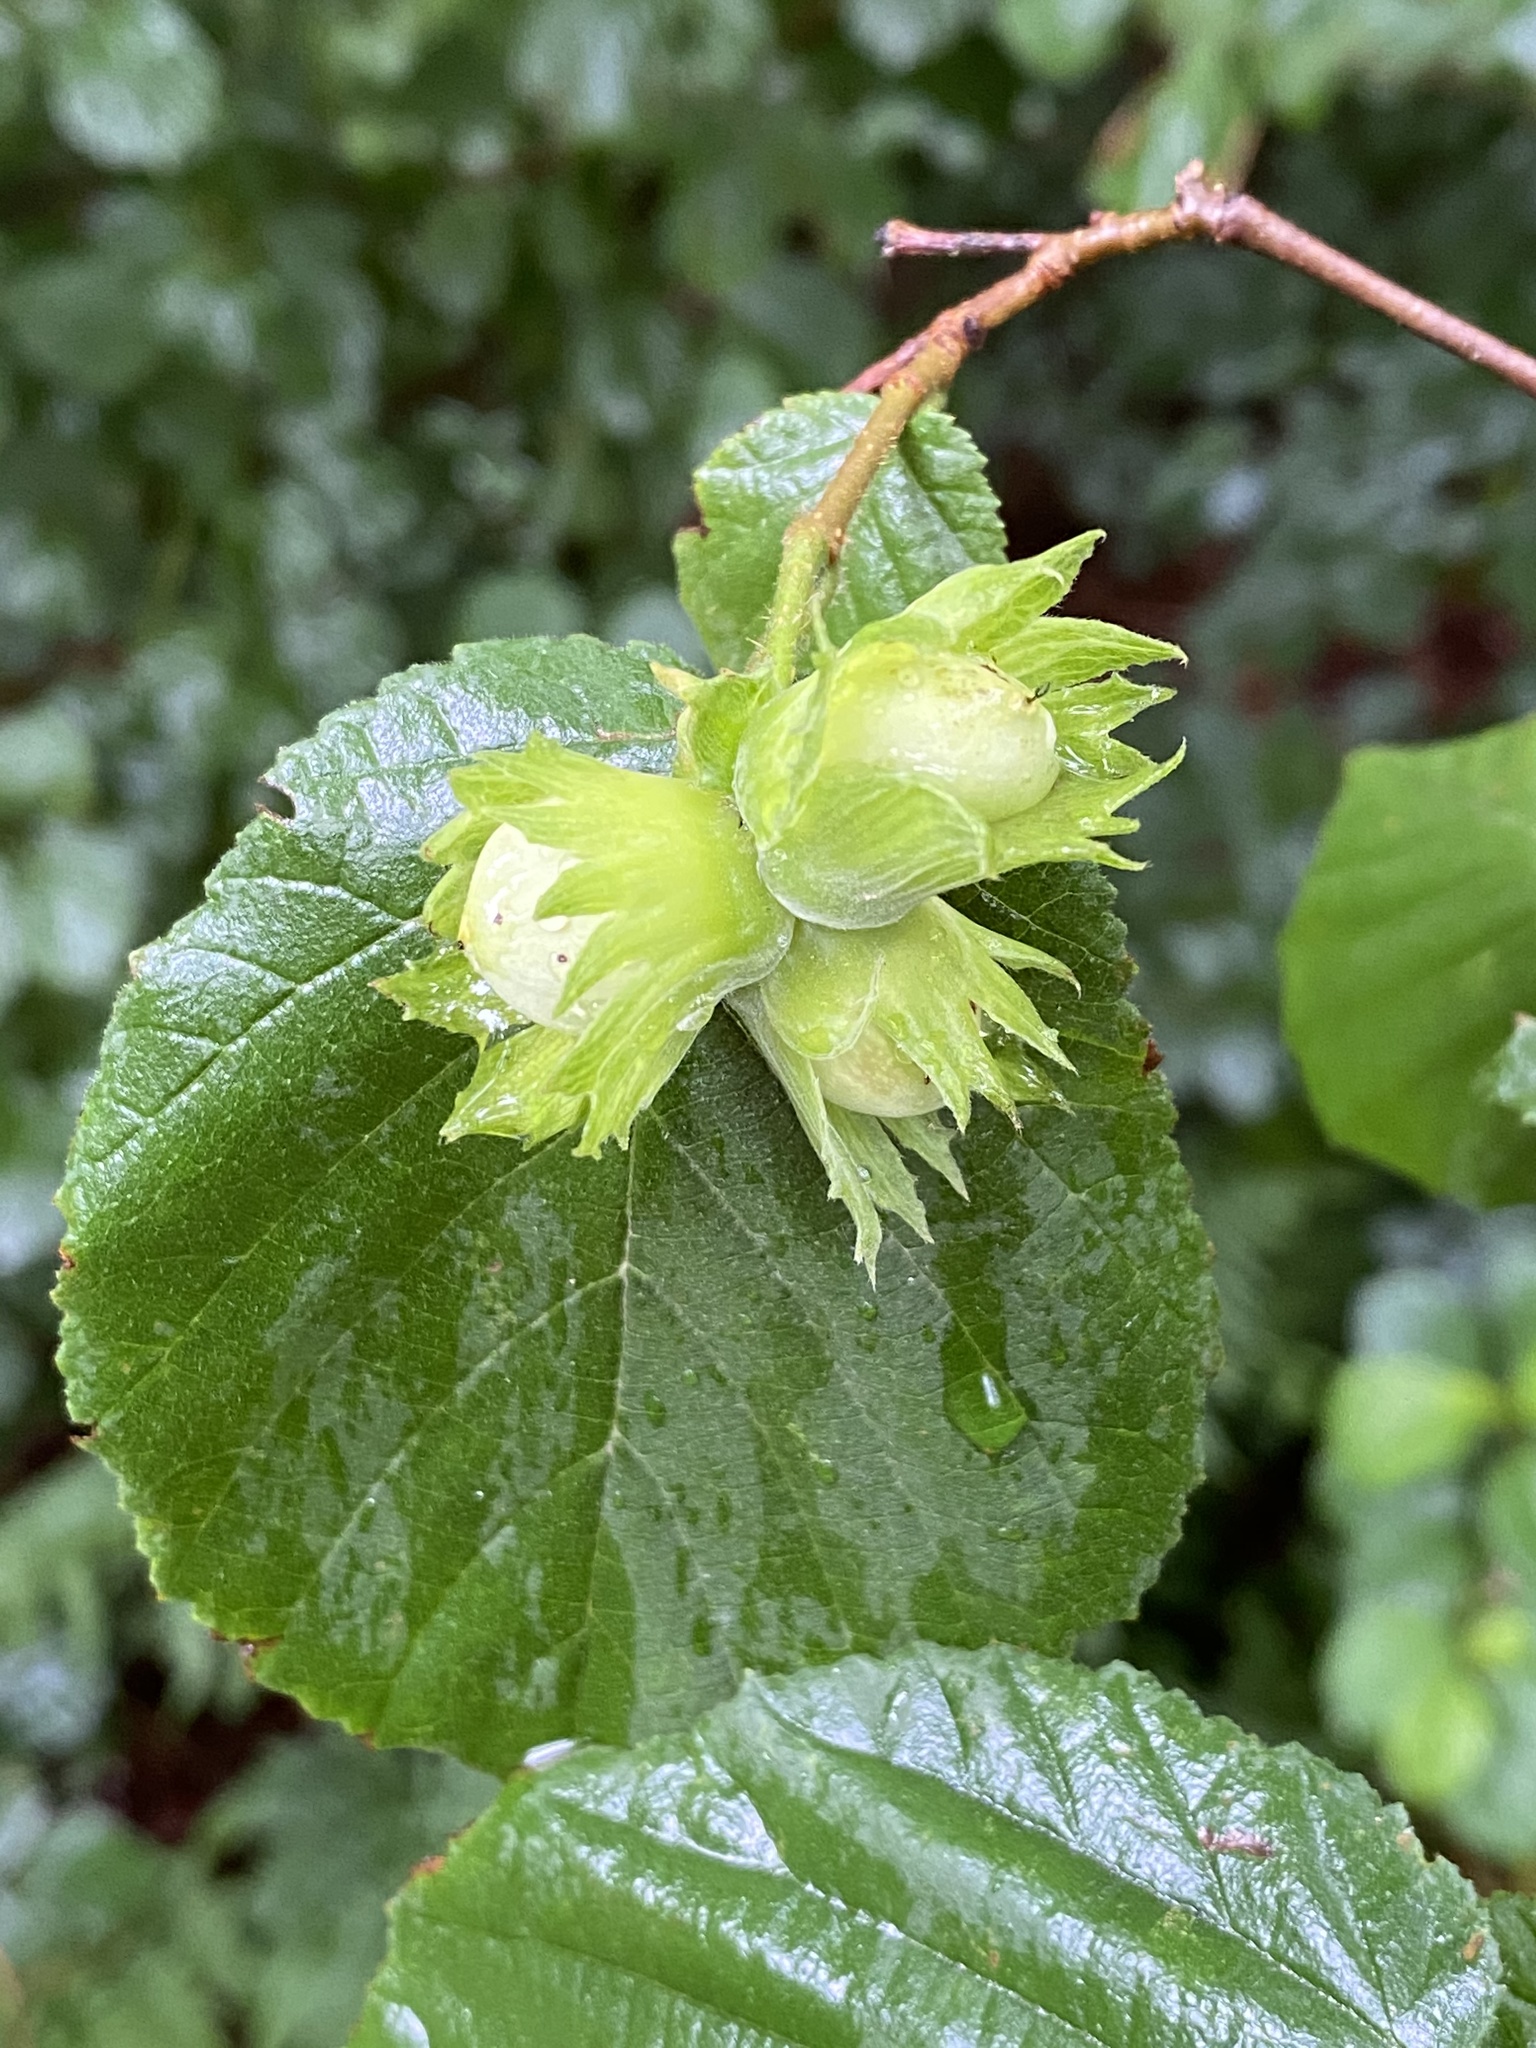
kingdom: Plantae
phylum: Tracheophyta
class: Magnoliopsida
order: Fagales
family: Betulaceae
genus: Corylus
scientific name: Corylus avellana
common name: European hazel
